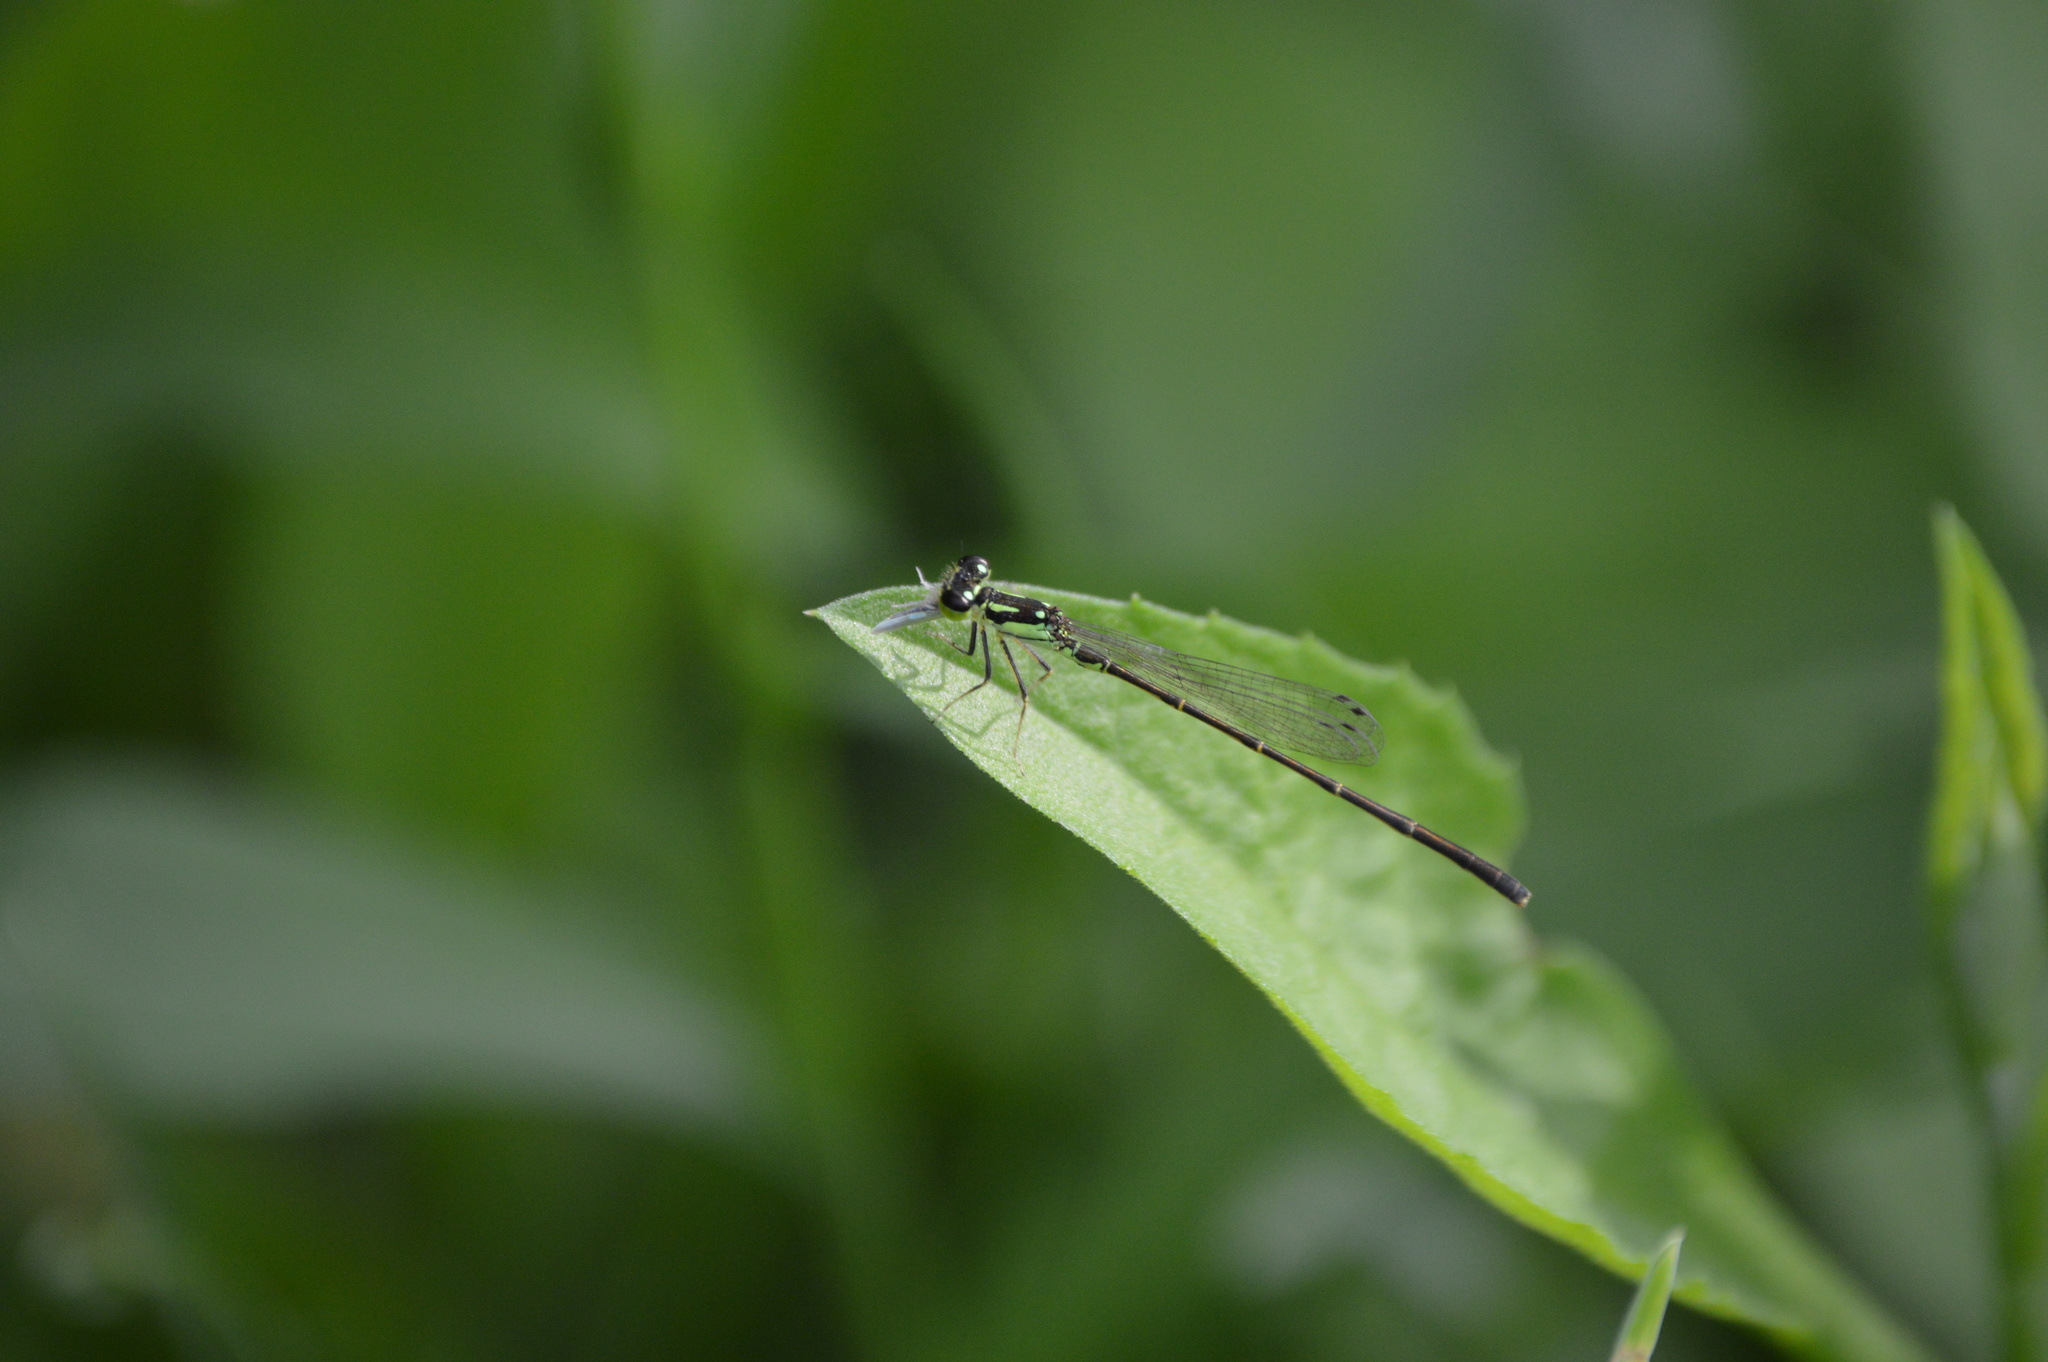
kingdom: Animalia
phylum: Arthropoda
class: Insecta
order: Odonata
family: Coenagrionidae
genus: Ischnura
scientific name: Ischnura posita
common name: Fragile forktail
